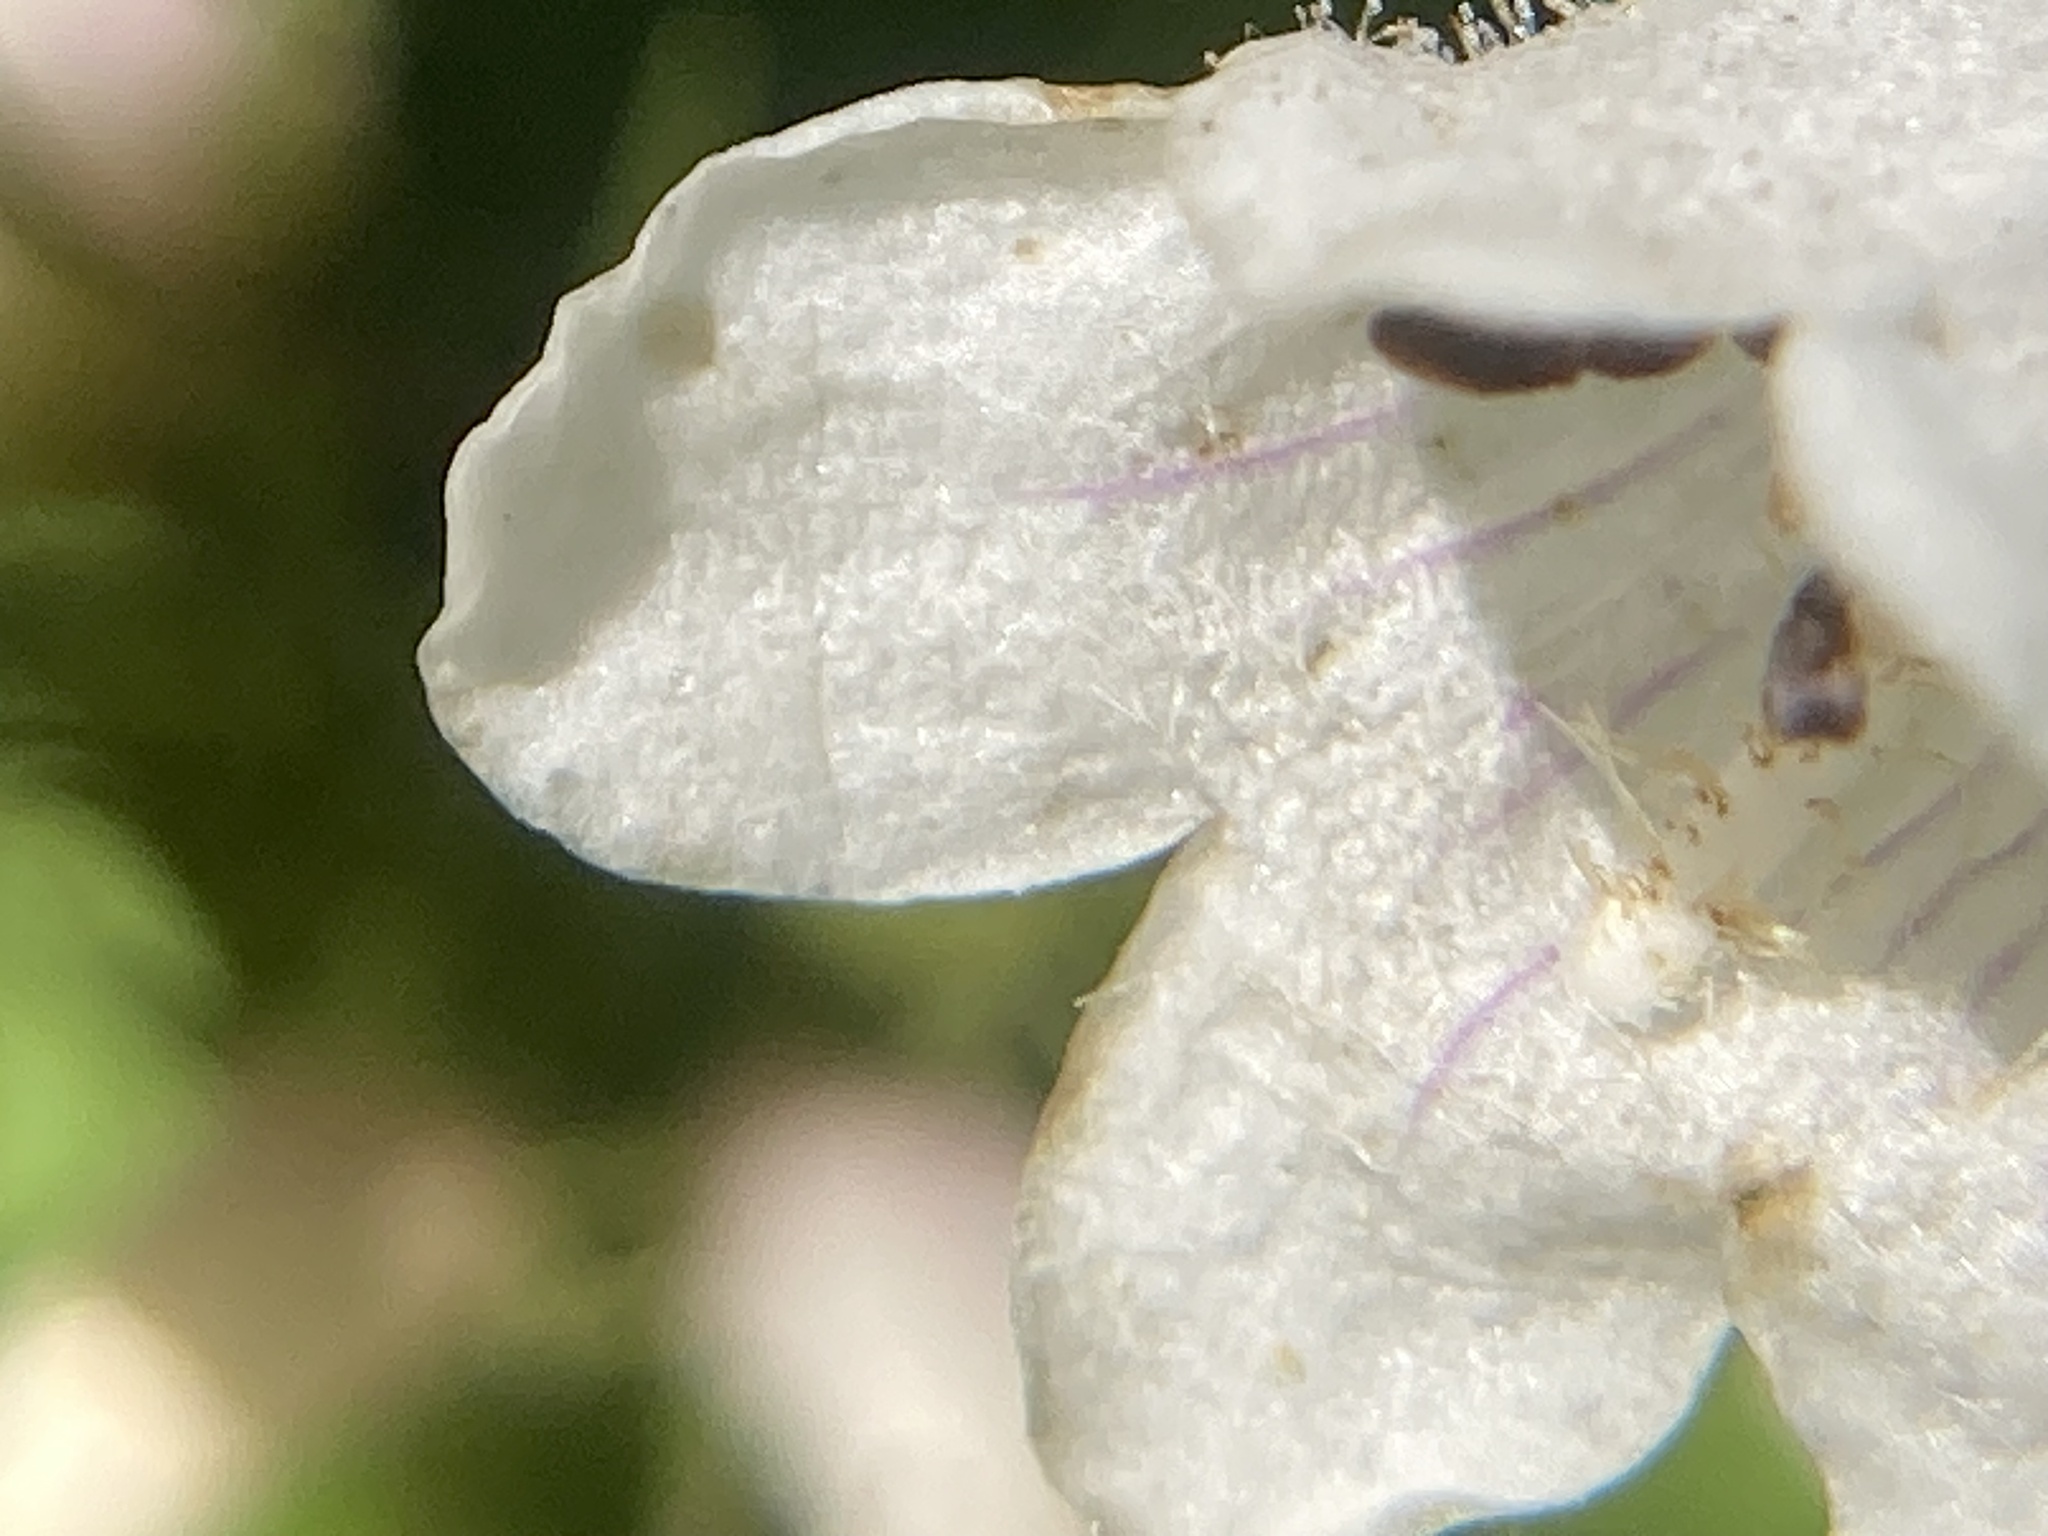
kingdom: Plantae
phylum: Tracheophyta
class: Magnoliopsida
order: Lamiales
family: Plantaginaceae
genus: Penstemon
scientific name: Penstemon digitalis
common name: Foxglove beardtongue
